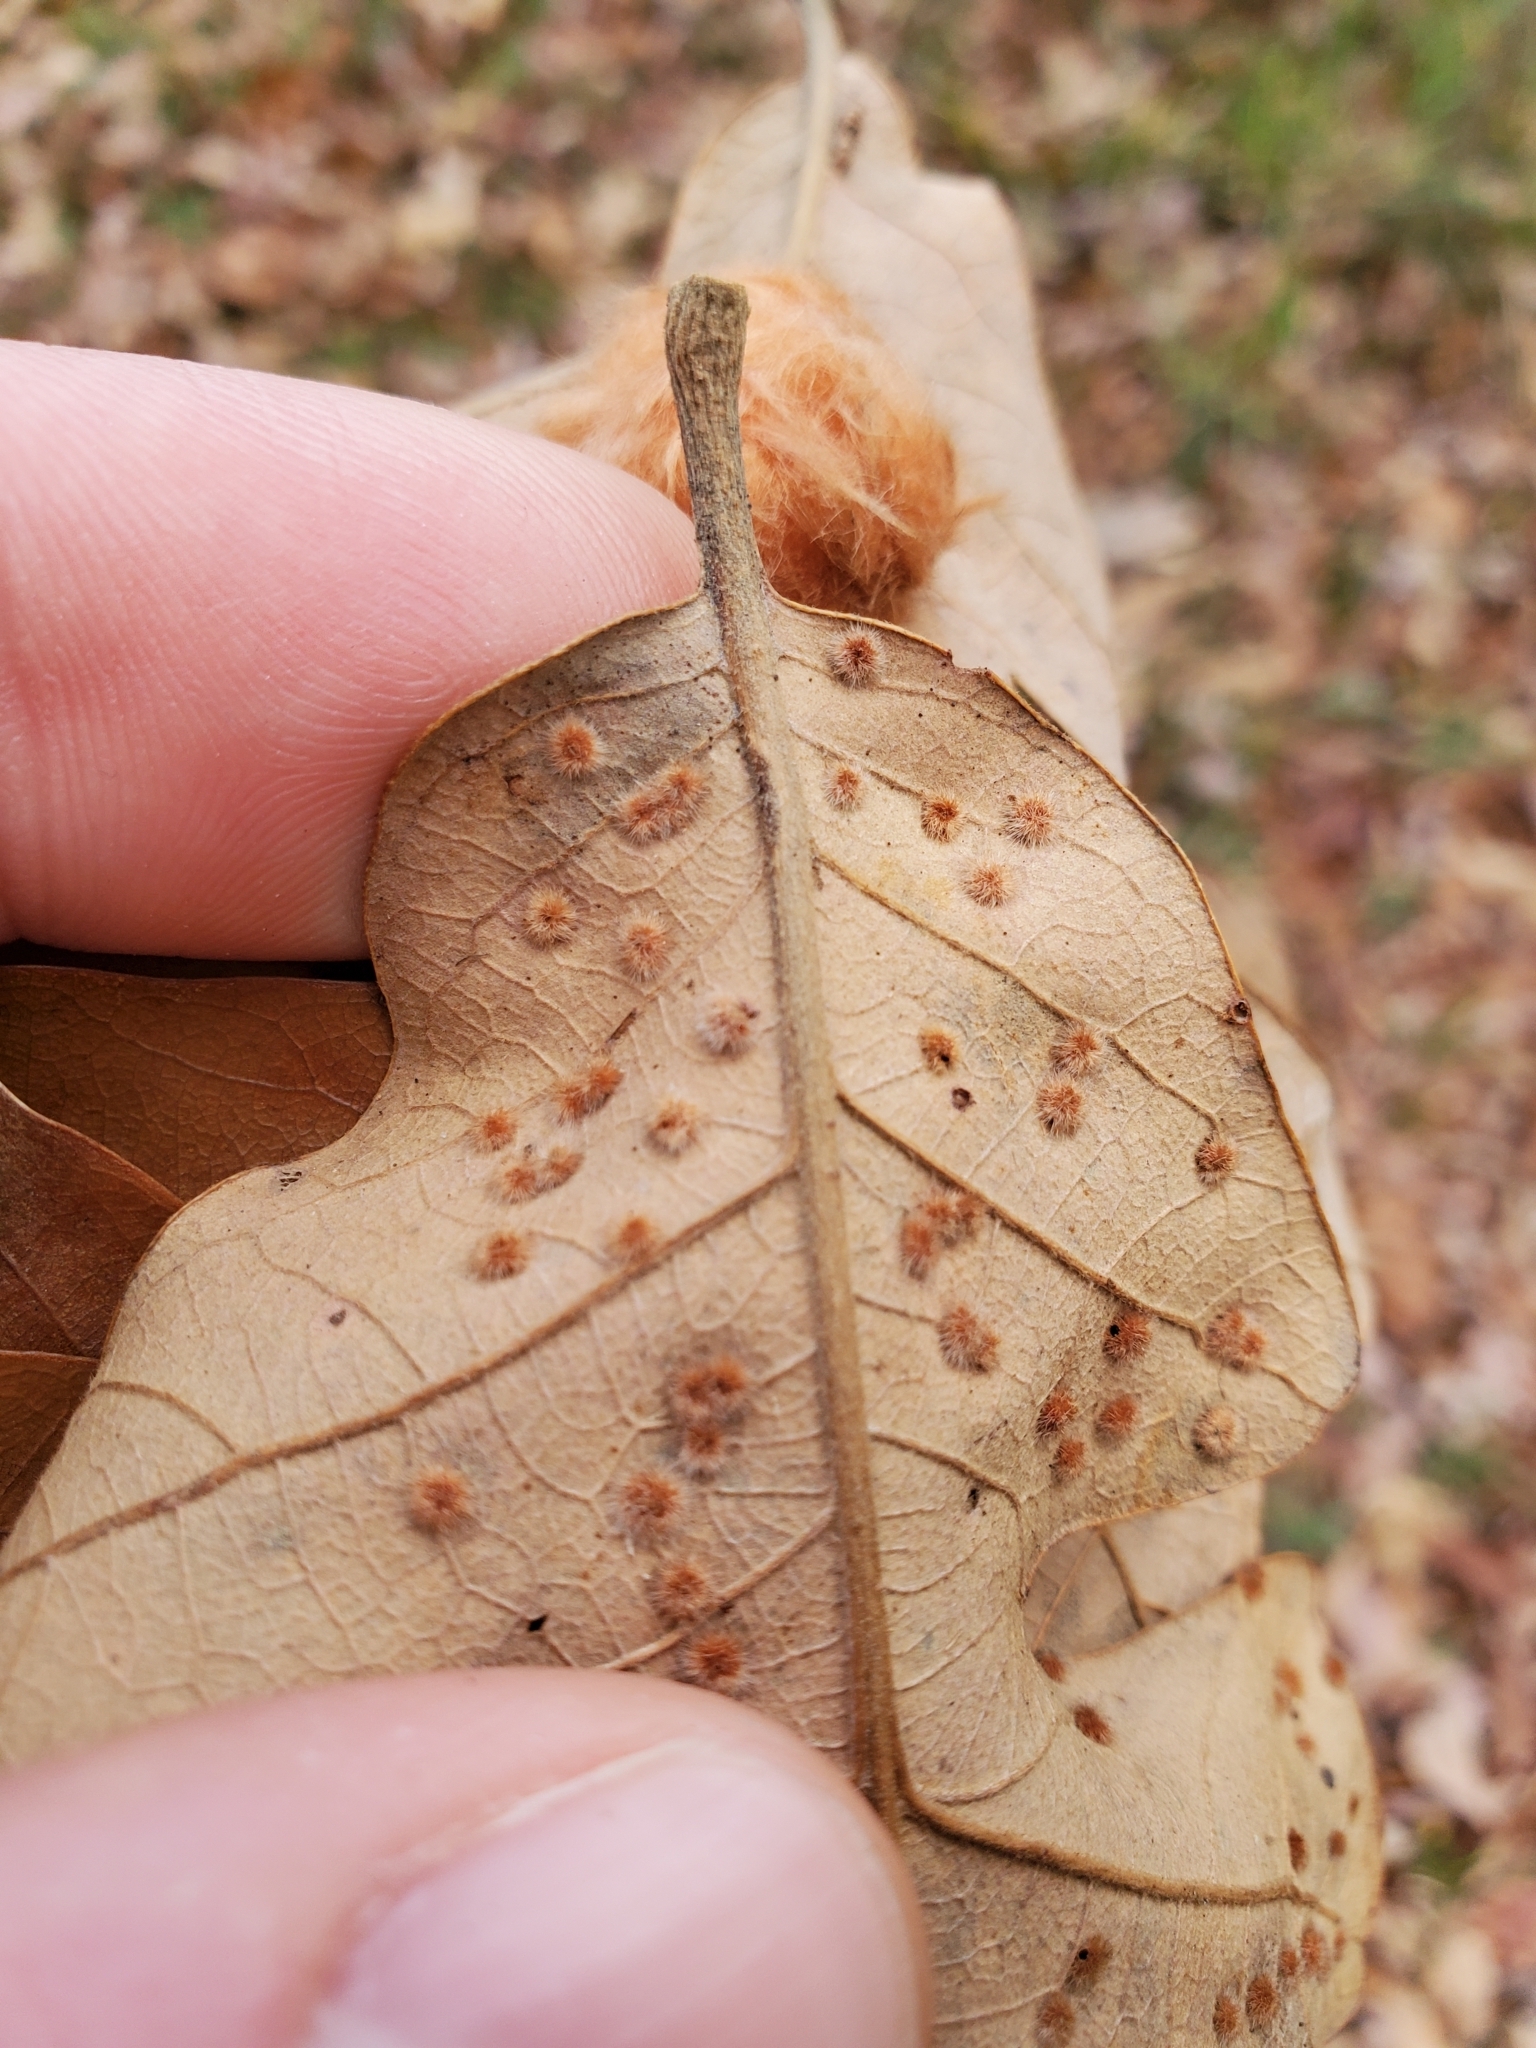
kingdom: Animalia
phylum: Arthropoda
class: Insecta
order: Hymenoptera
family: Cynipidae
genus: Neuroterus
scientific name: Neuroterus quercusverrucarum
